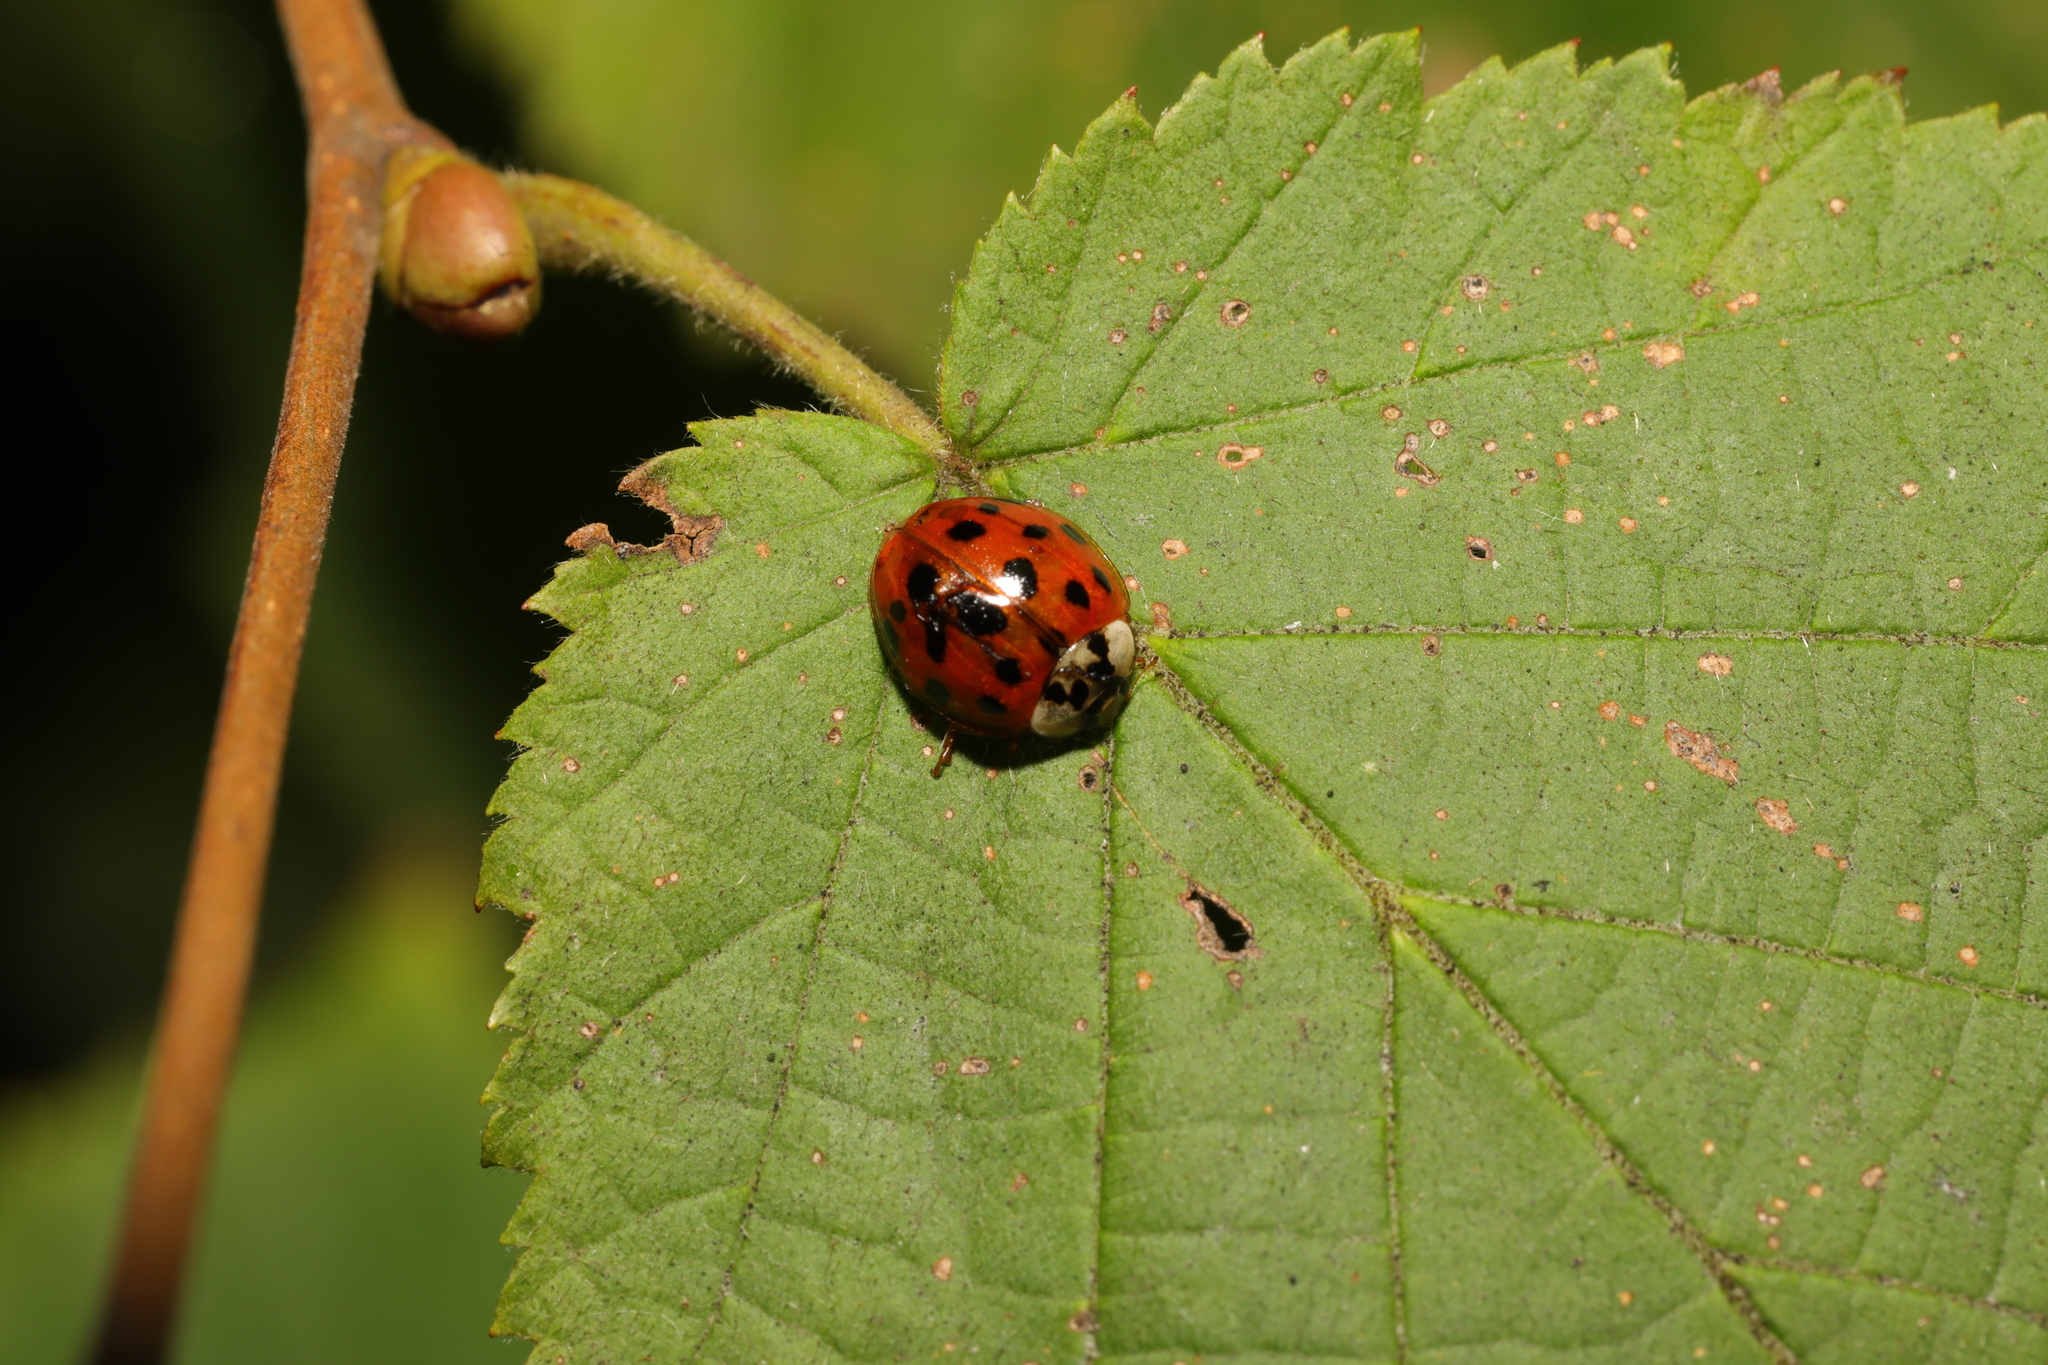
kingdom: Animalia
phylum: Arthropoda
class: Insecta
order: Coleoptera
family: Coccinellidae
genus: Harmonia
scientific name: Harmonia axyridis
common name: Harlequin ladybird
